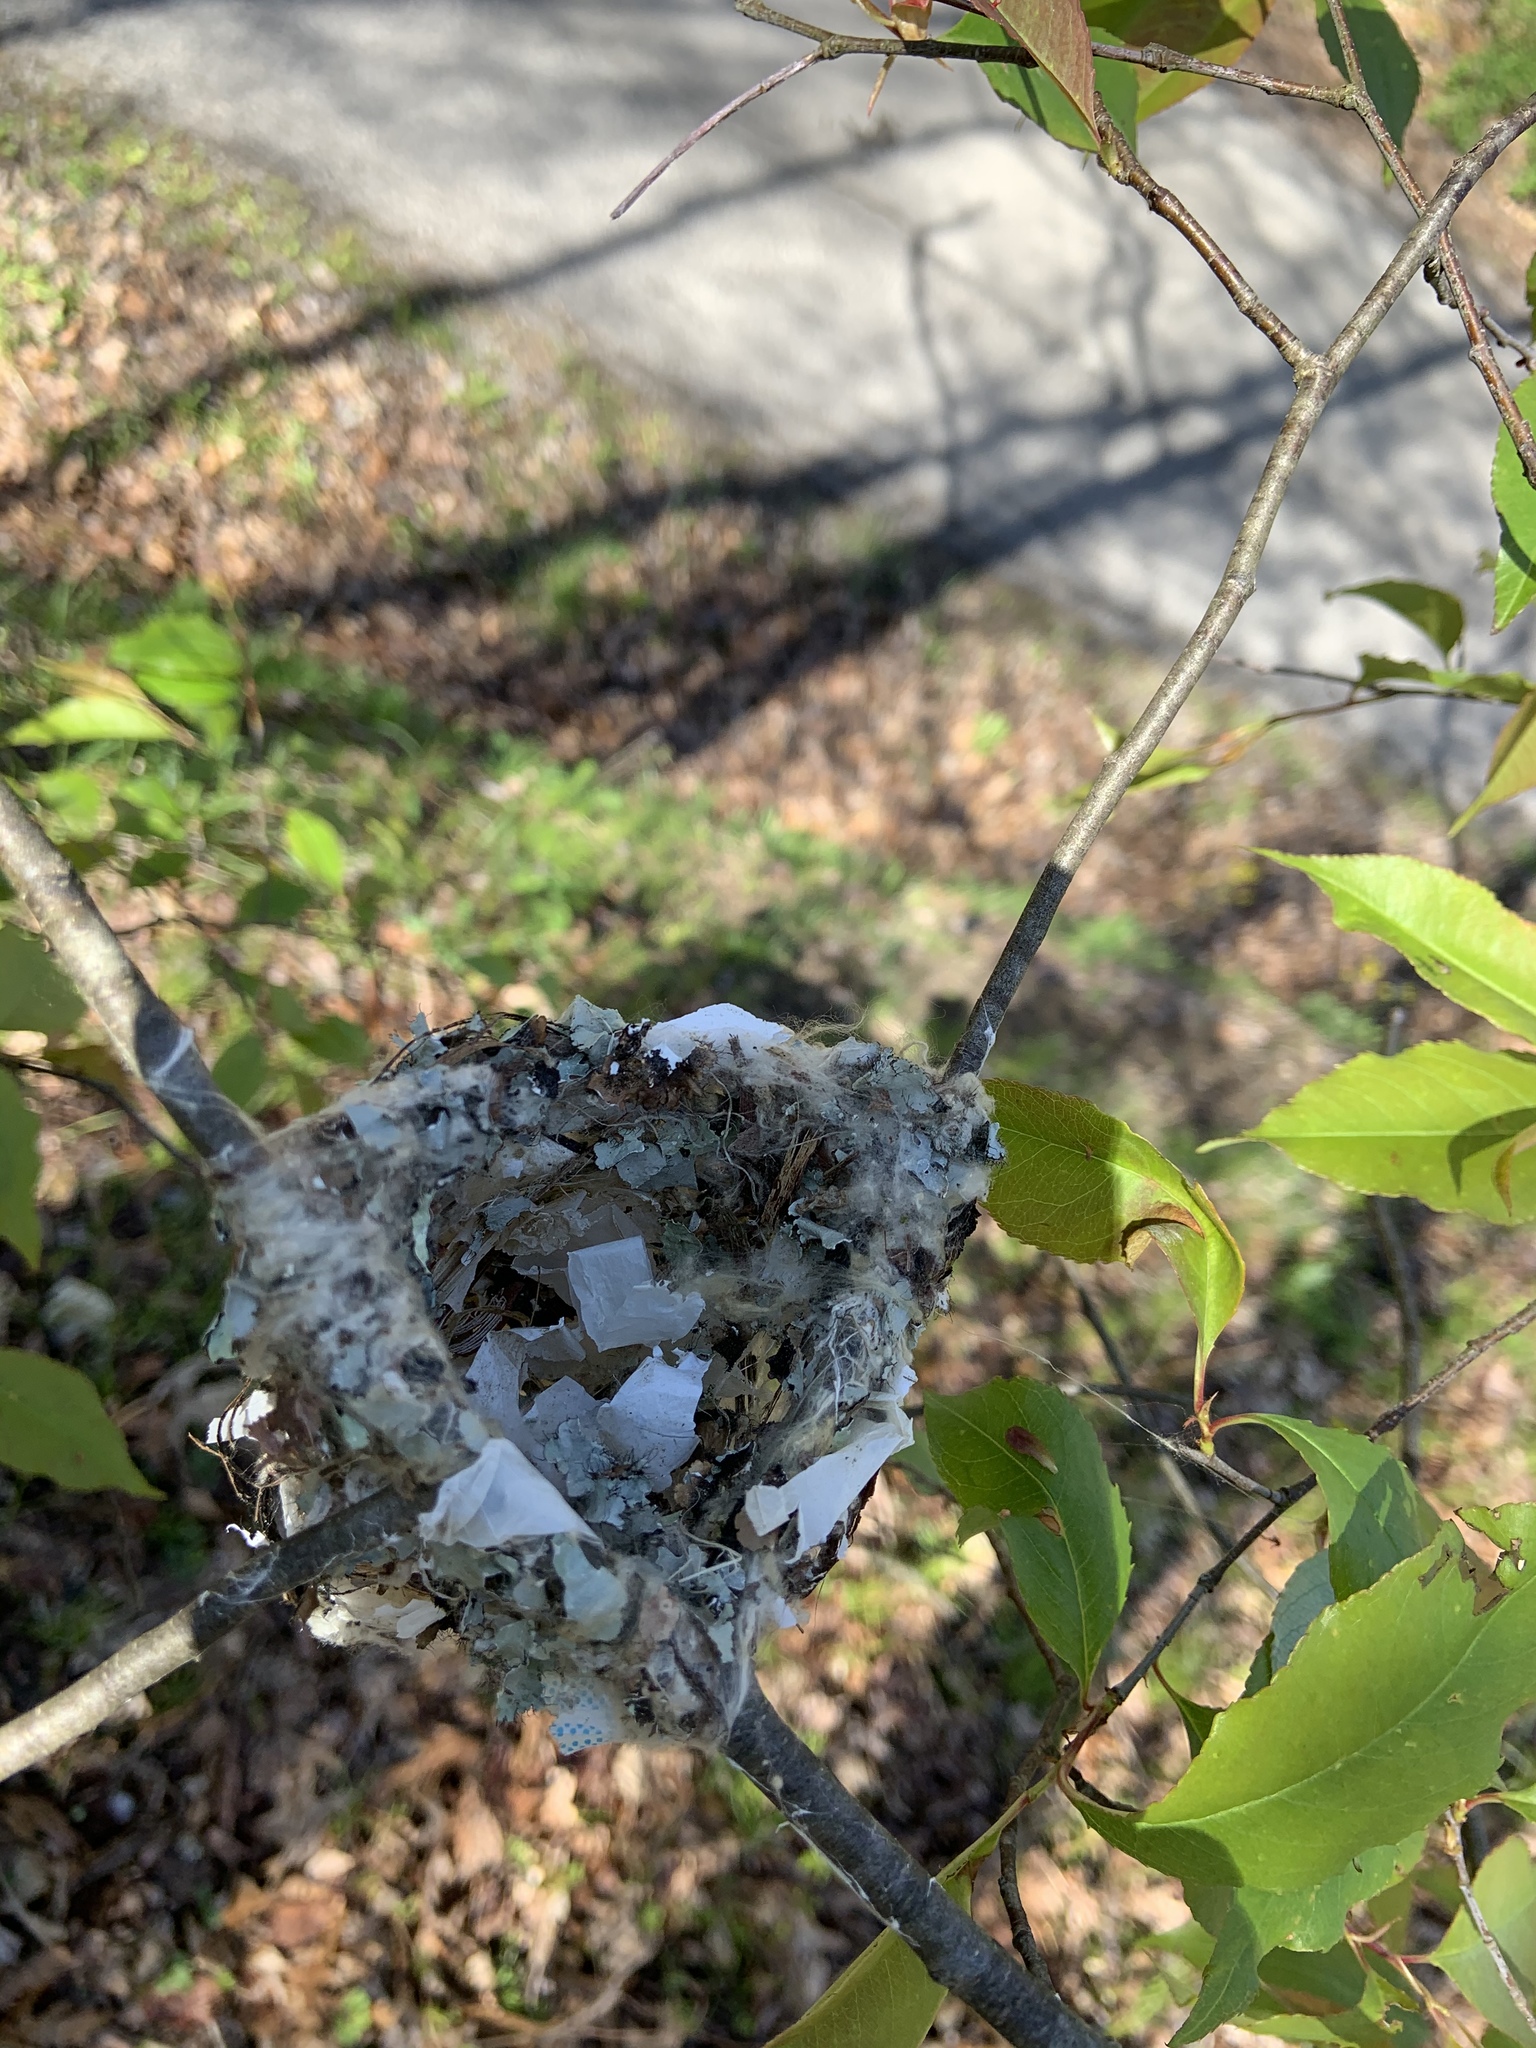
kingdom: Animalia
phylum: Chordata
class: Aves
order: Passeriformes
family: Vireonidae
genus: Vireo
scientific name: Vireo solitarius
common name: Blue-headed vireo
